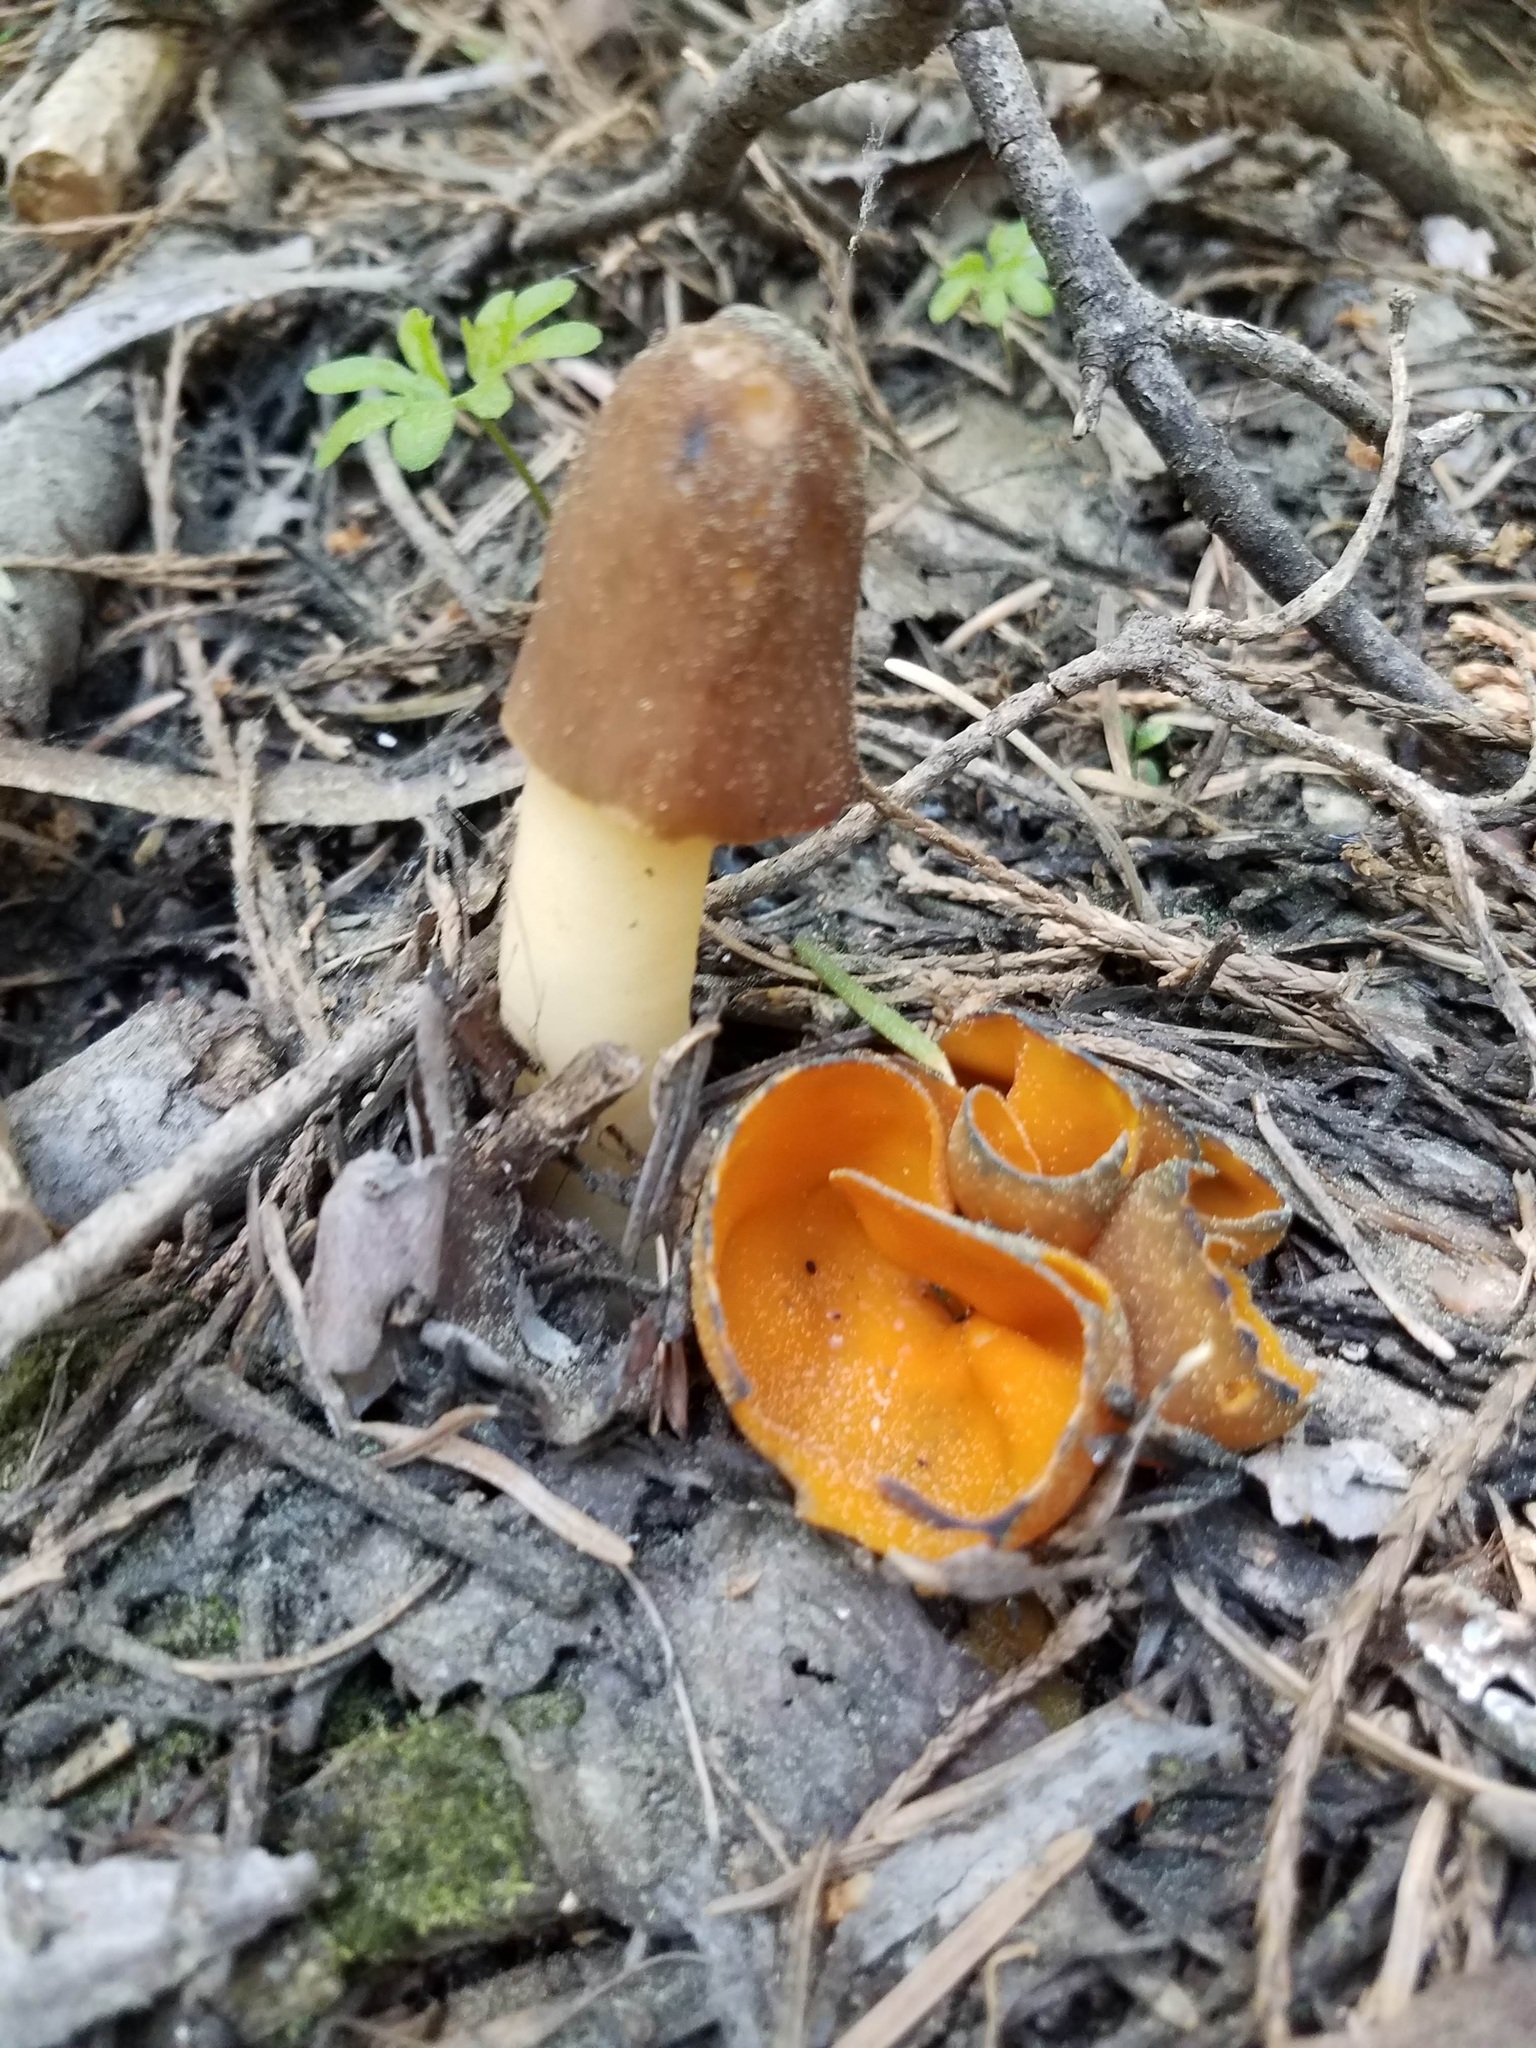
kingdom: Fungi
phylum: Ascomycota
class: Pezizomycetes
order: Pezizales
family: Morchellaceae
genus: Verpa
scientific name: Verpa conica
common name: Thimble morel
